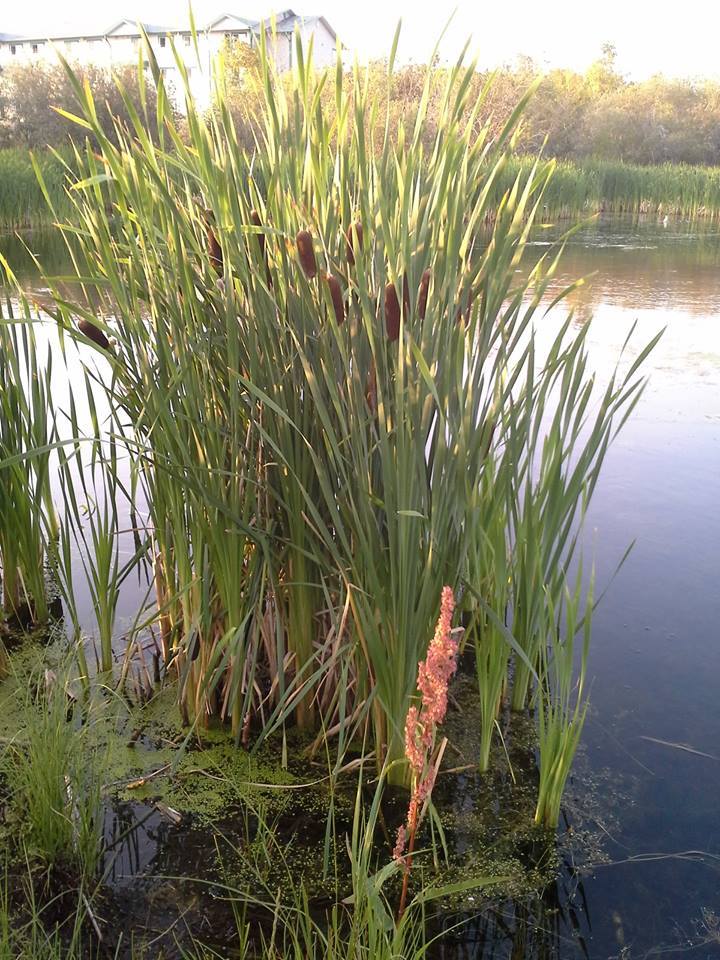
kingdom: Plantae
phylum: Tracheophyta
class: Liliopsida
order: Poales
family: Typhaceae
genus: Typha
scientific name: Typha latifolia
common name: Broadleaf cattail
